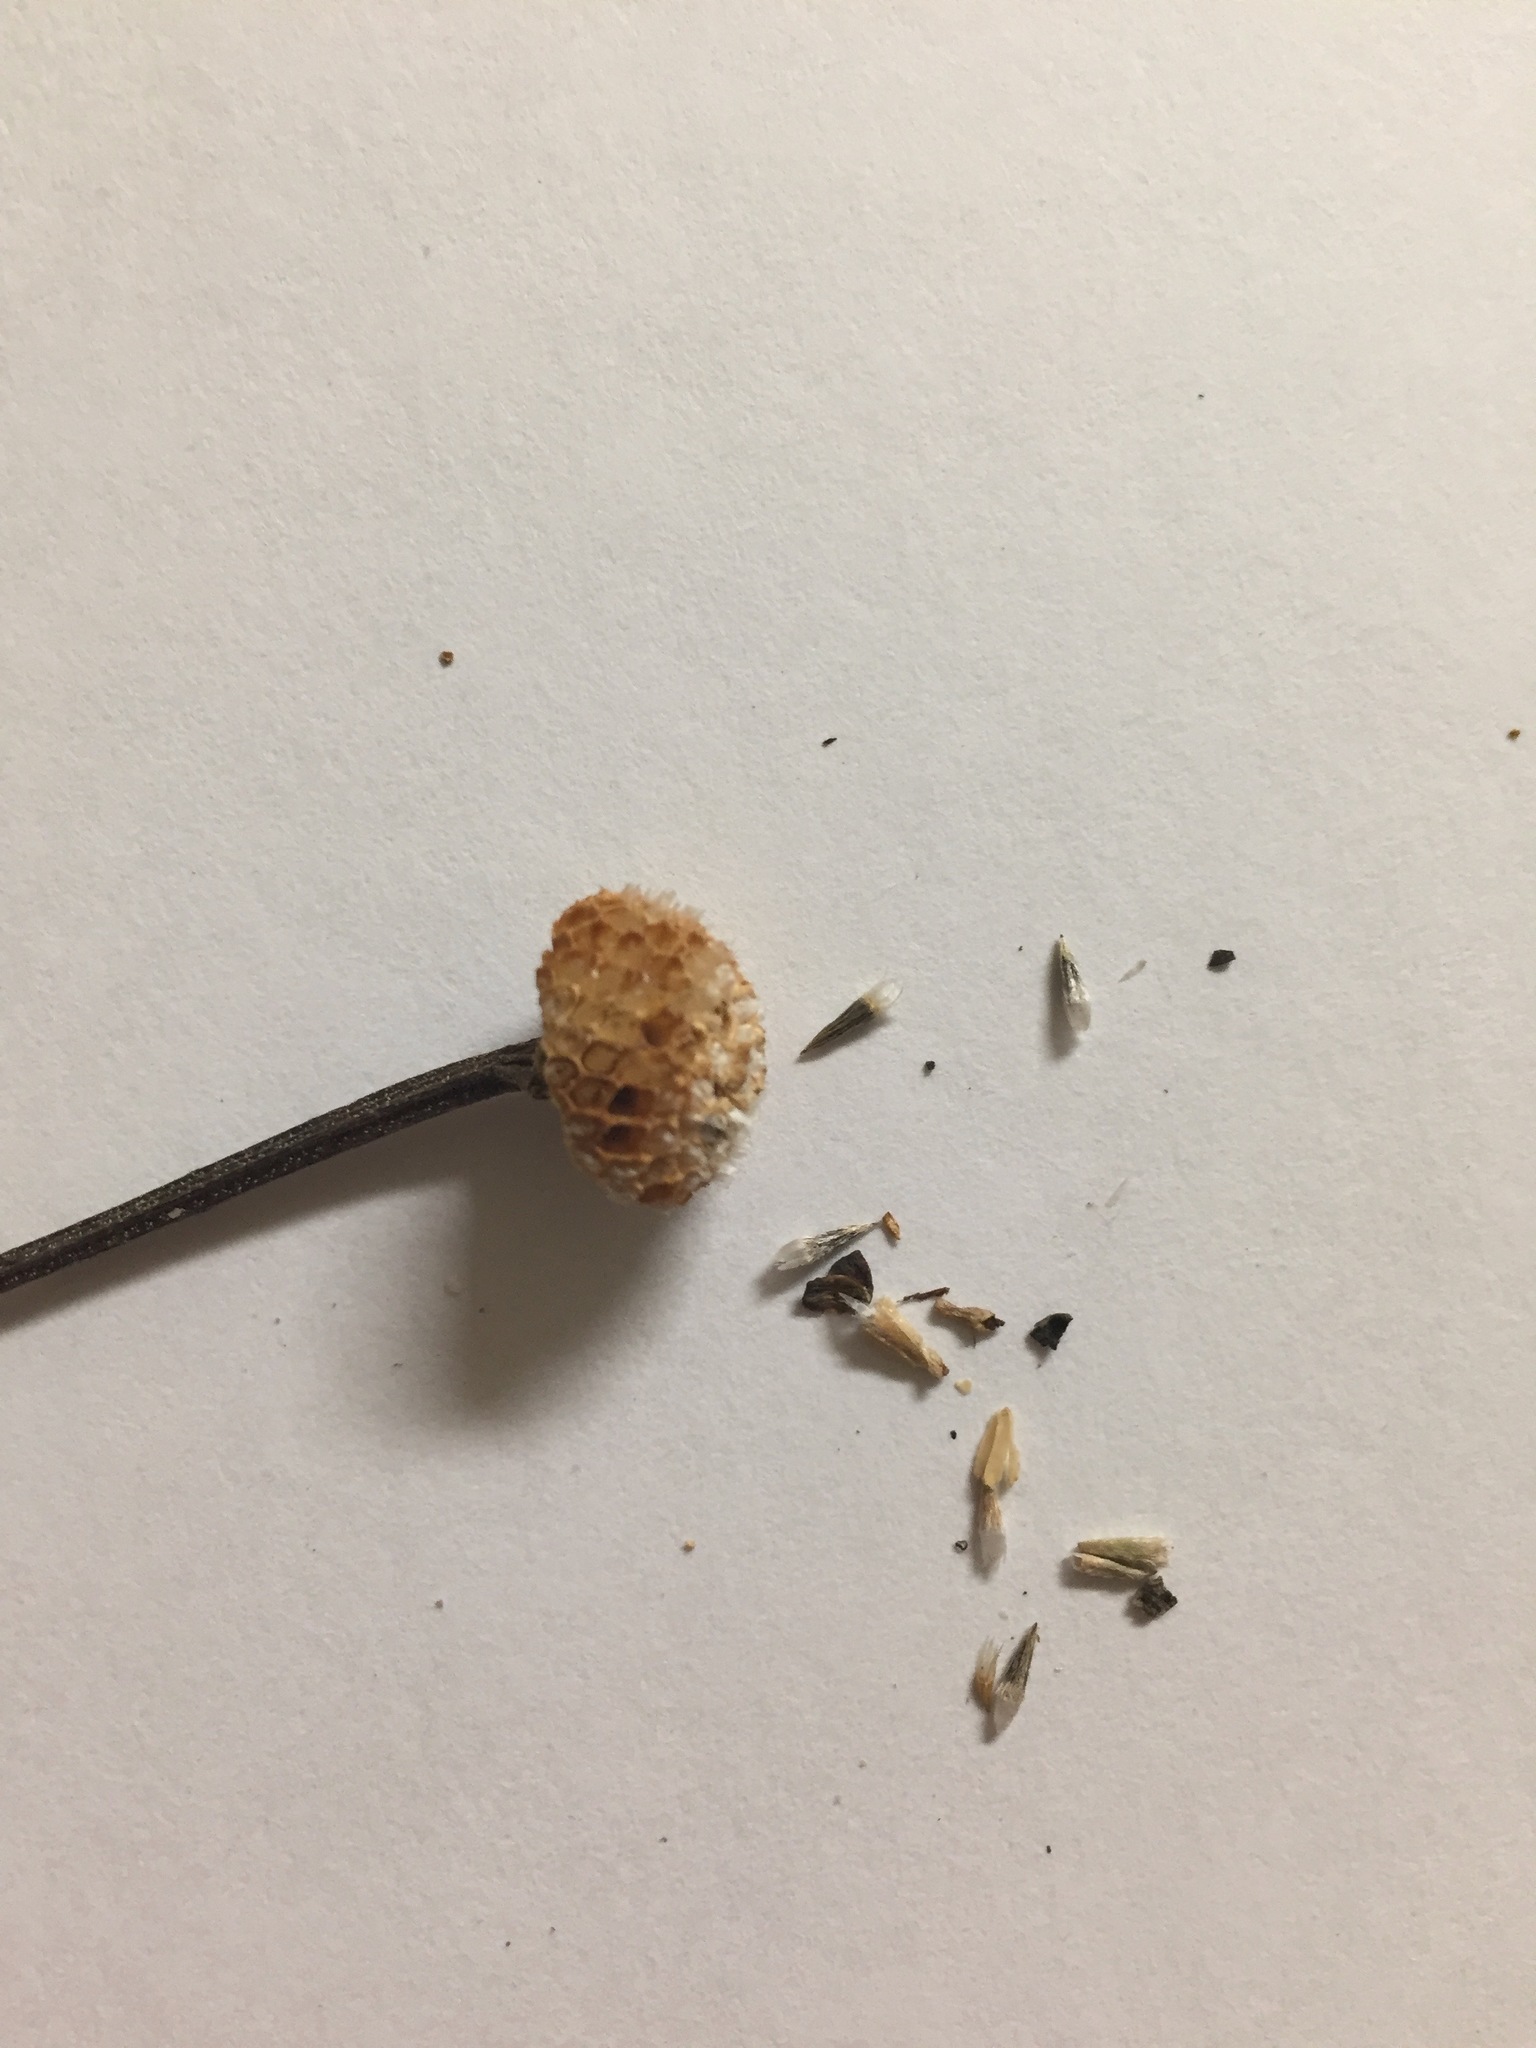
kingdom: Plantae
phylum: Tracheophyta
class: Magnoliopsida
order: Asterales
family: Asteraceae
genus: Balduina
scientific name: Balduina uniflora
